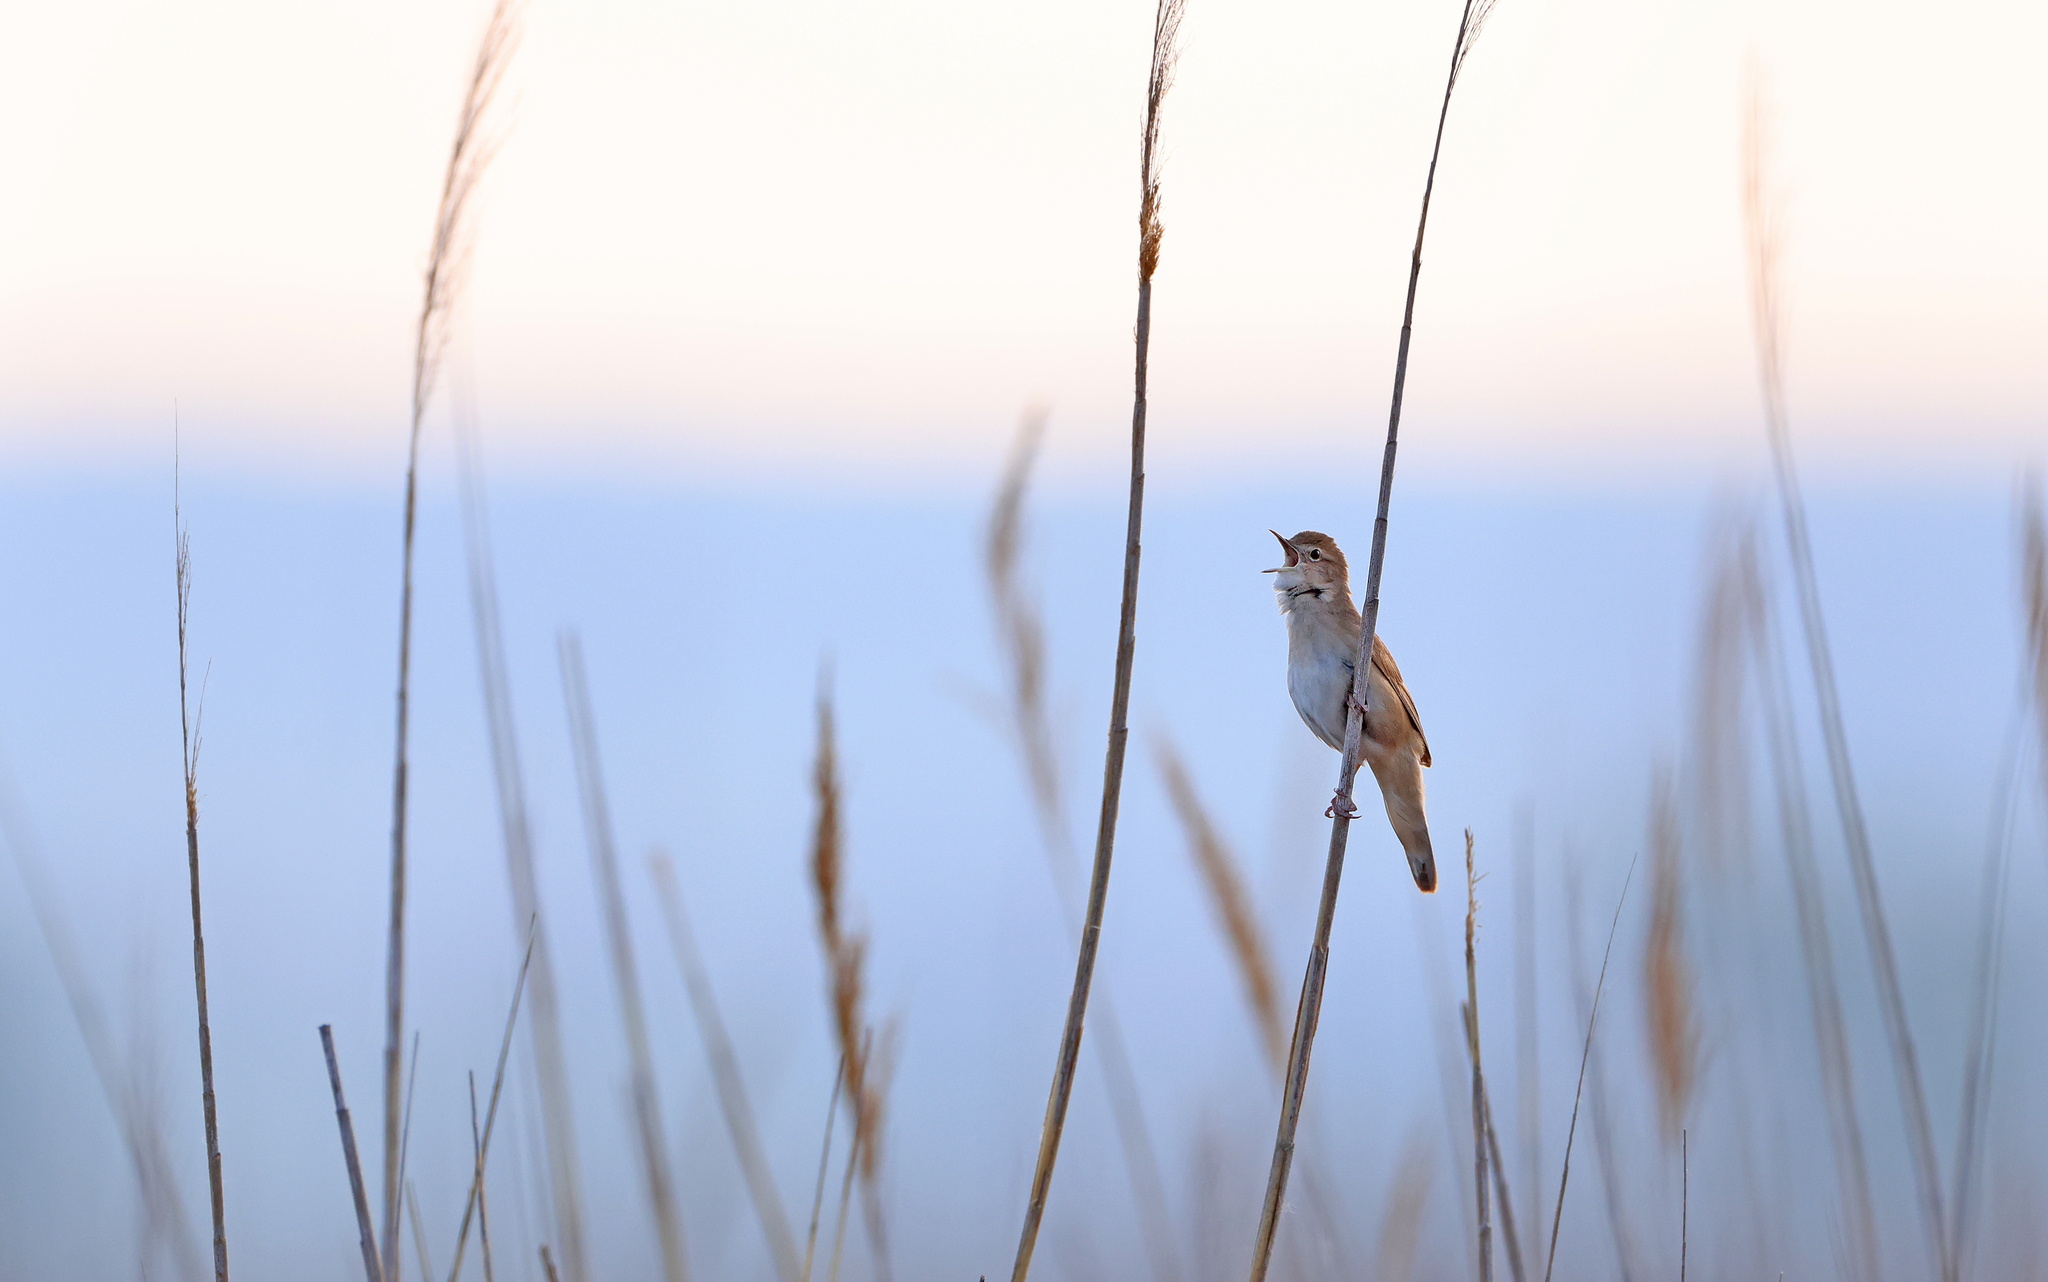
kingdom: Animalia
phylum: Chordata
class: Aves
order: Passeriformes
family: Locustellidae
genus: Locustella
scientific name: Locustella luscinioides
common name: Savi's warbler
